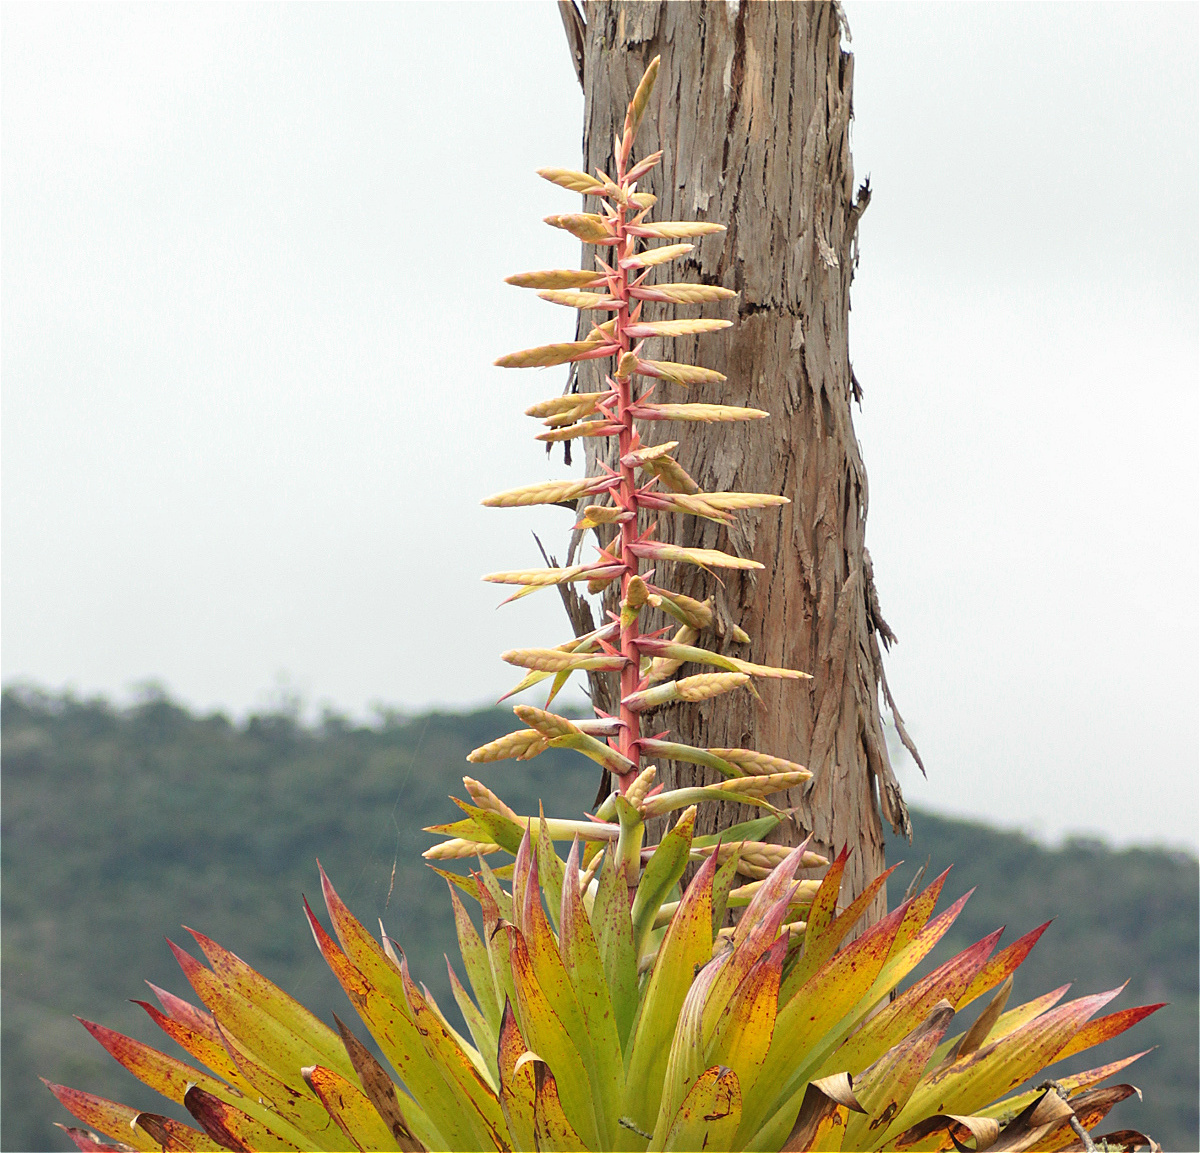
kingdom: Plantae
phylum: Tracheophyta
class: Liliopsida
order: Poales
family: Bromeliaceae
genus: Tillandsia
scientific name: Tillandsia fendleri
